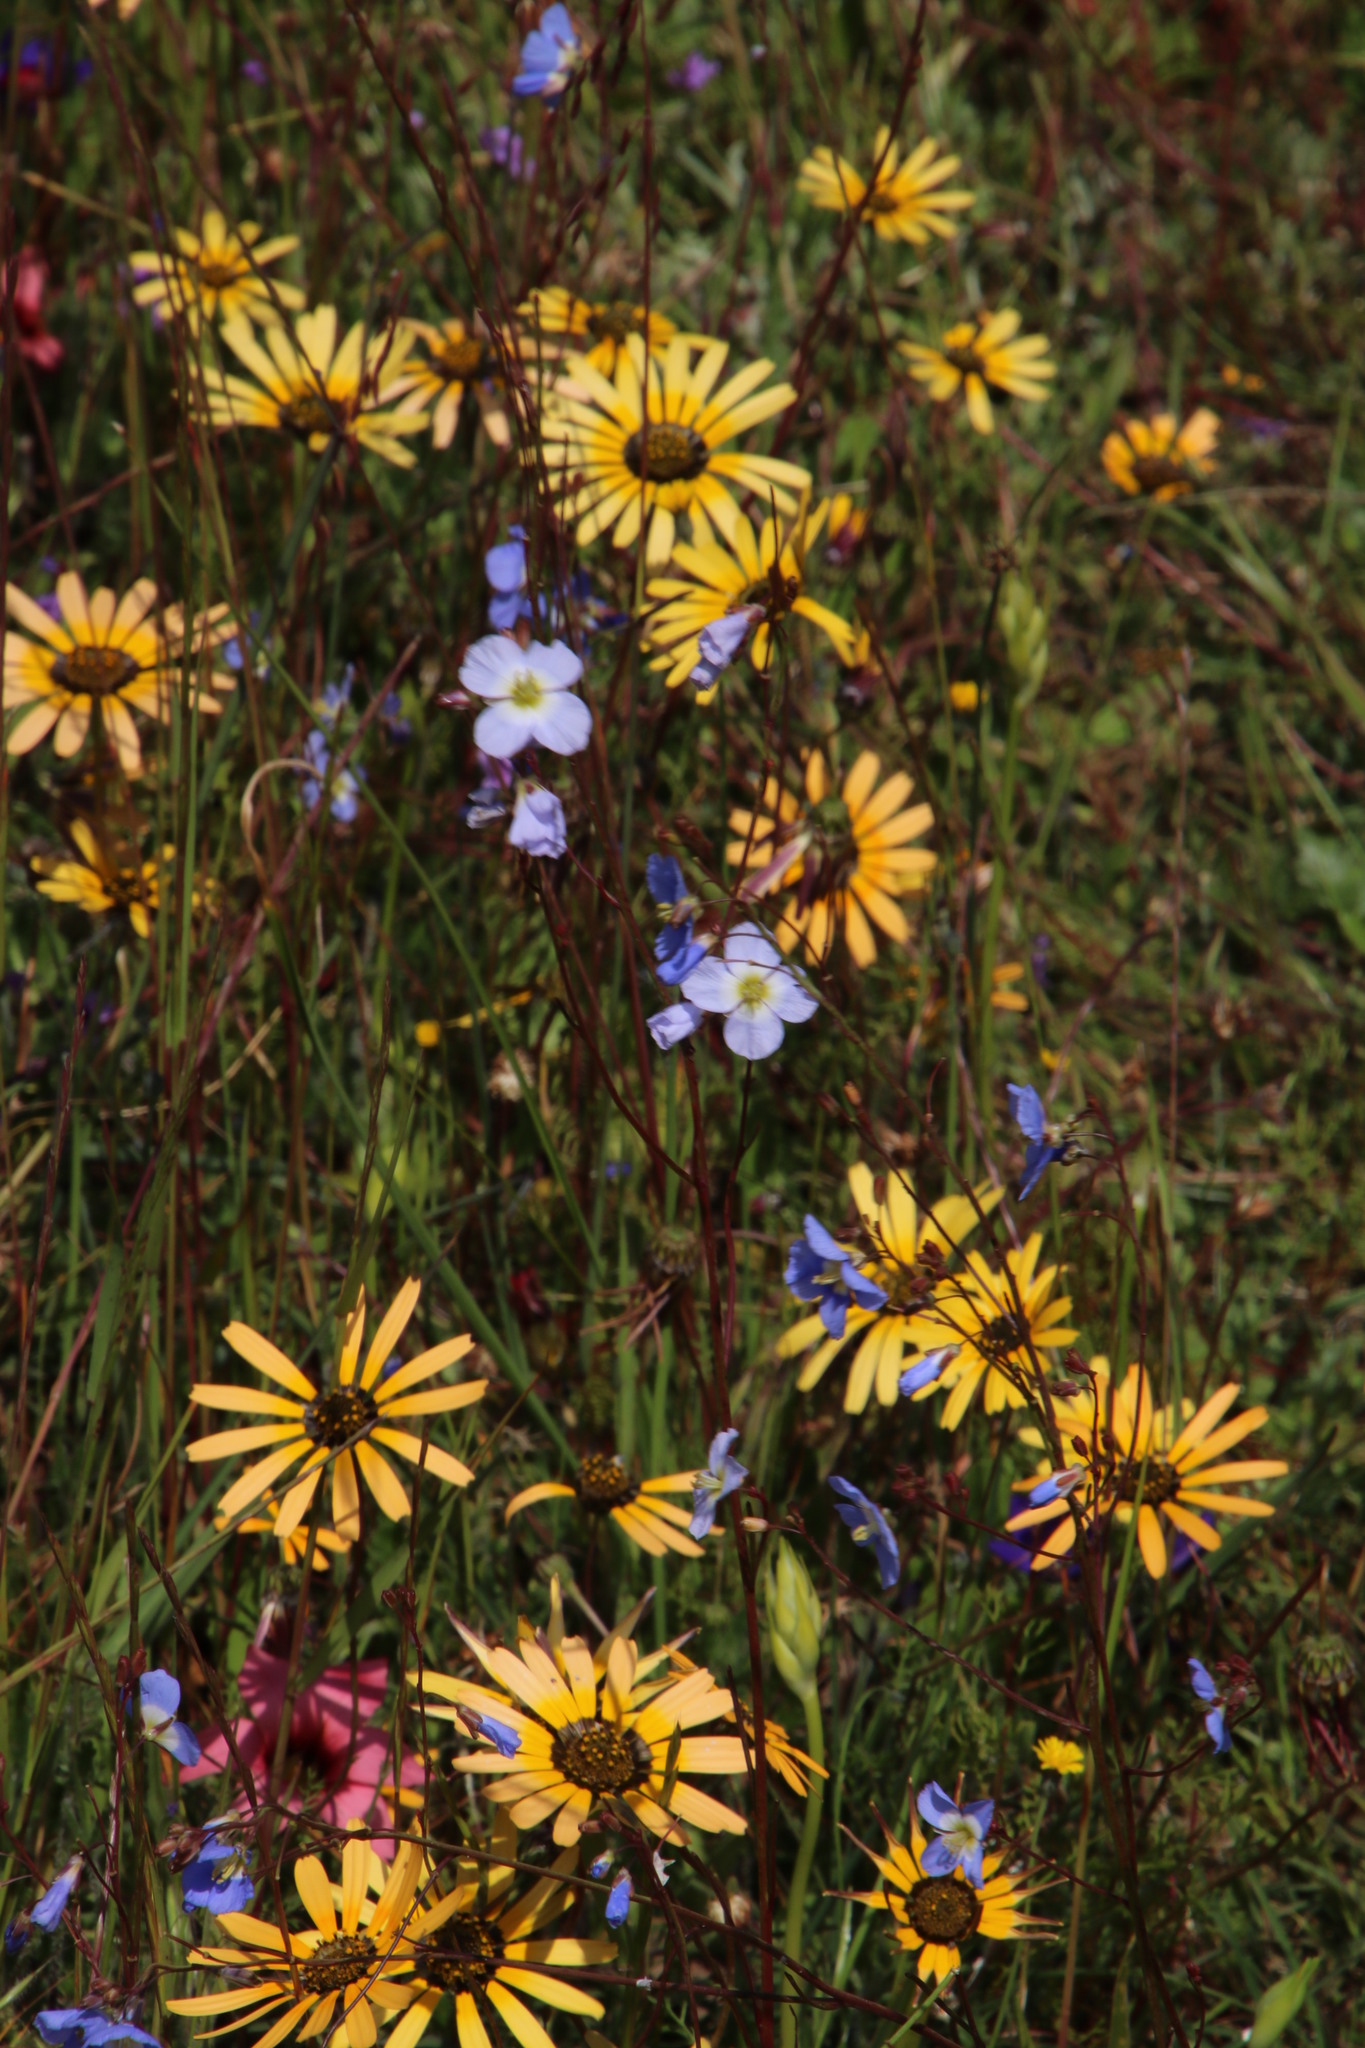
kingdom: Plantae
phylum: Tracheophyta
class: Magnoliopsida
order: Brassicales
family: Brassicaceae
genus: Heliophila
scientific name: Heliophila coronopifolia
